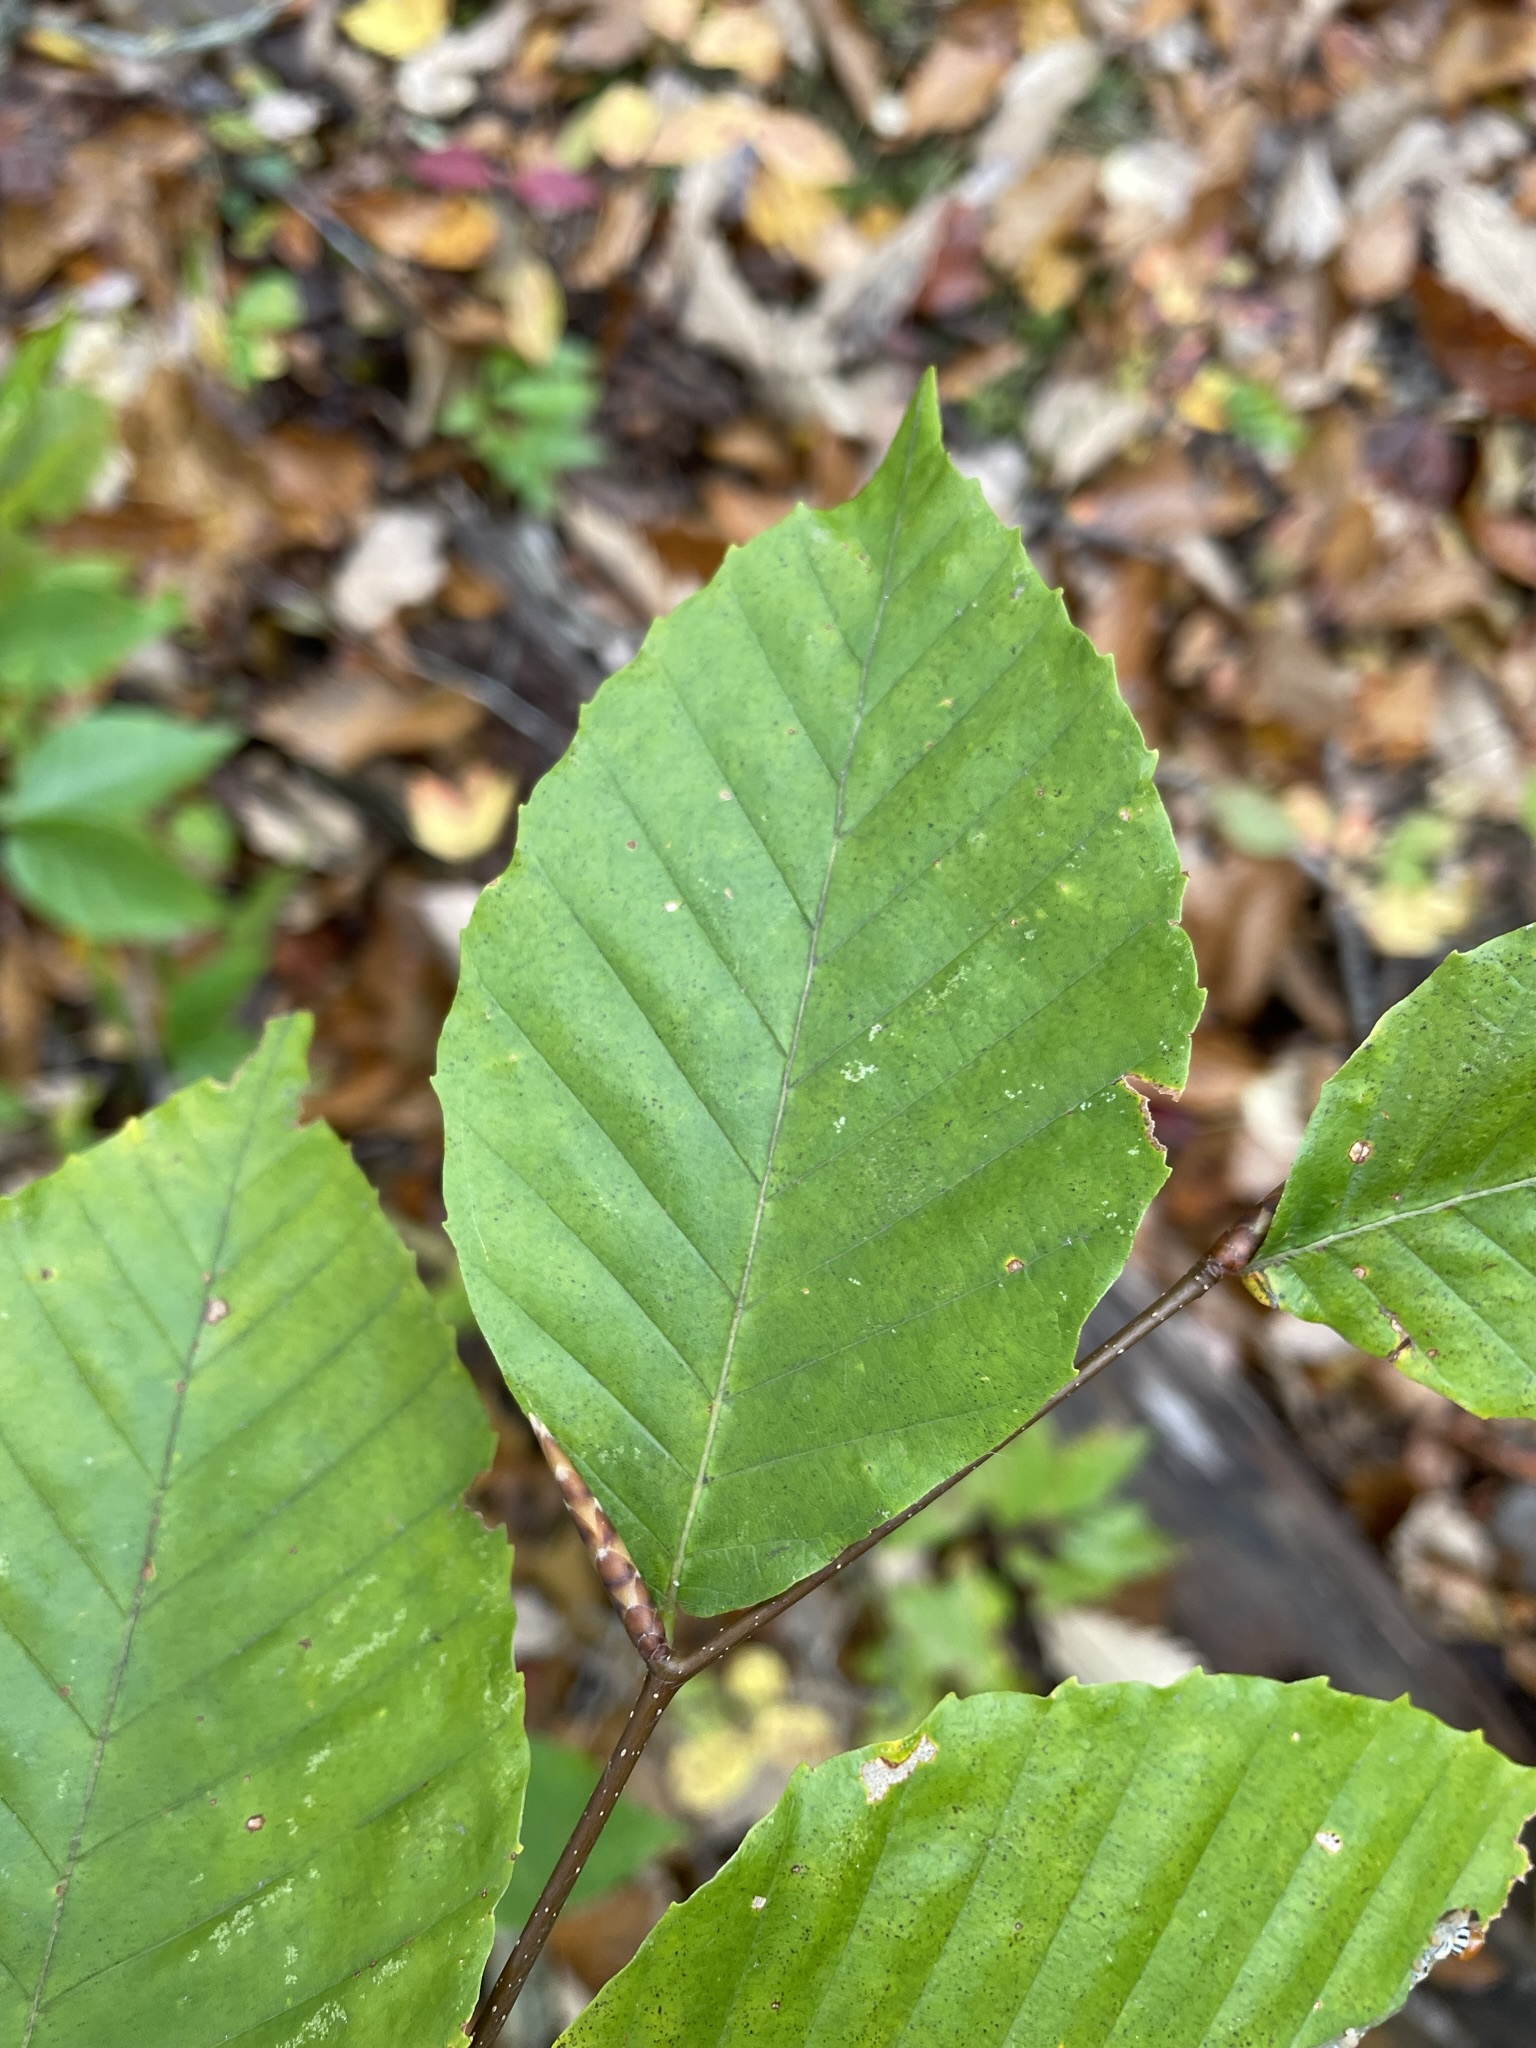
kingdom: Plantae
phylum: Tracheophyta
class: Magnoliopsida
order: Fagales
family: Fagaceae
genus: Fagus
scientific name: Fagus grandifolia
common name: American beech
